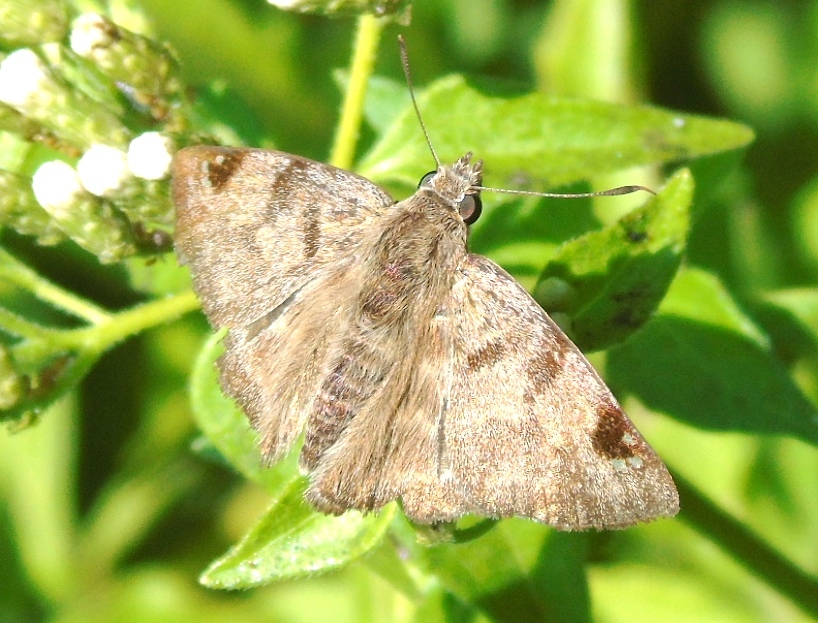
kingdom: Animalia
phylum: Arthropoda
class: Insecta
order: Lepidoptera
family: Hesperiidae
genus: Arteurotia
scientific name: Arteurotia tractipennis
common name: Starred skipper
